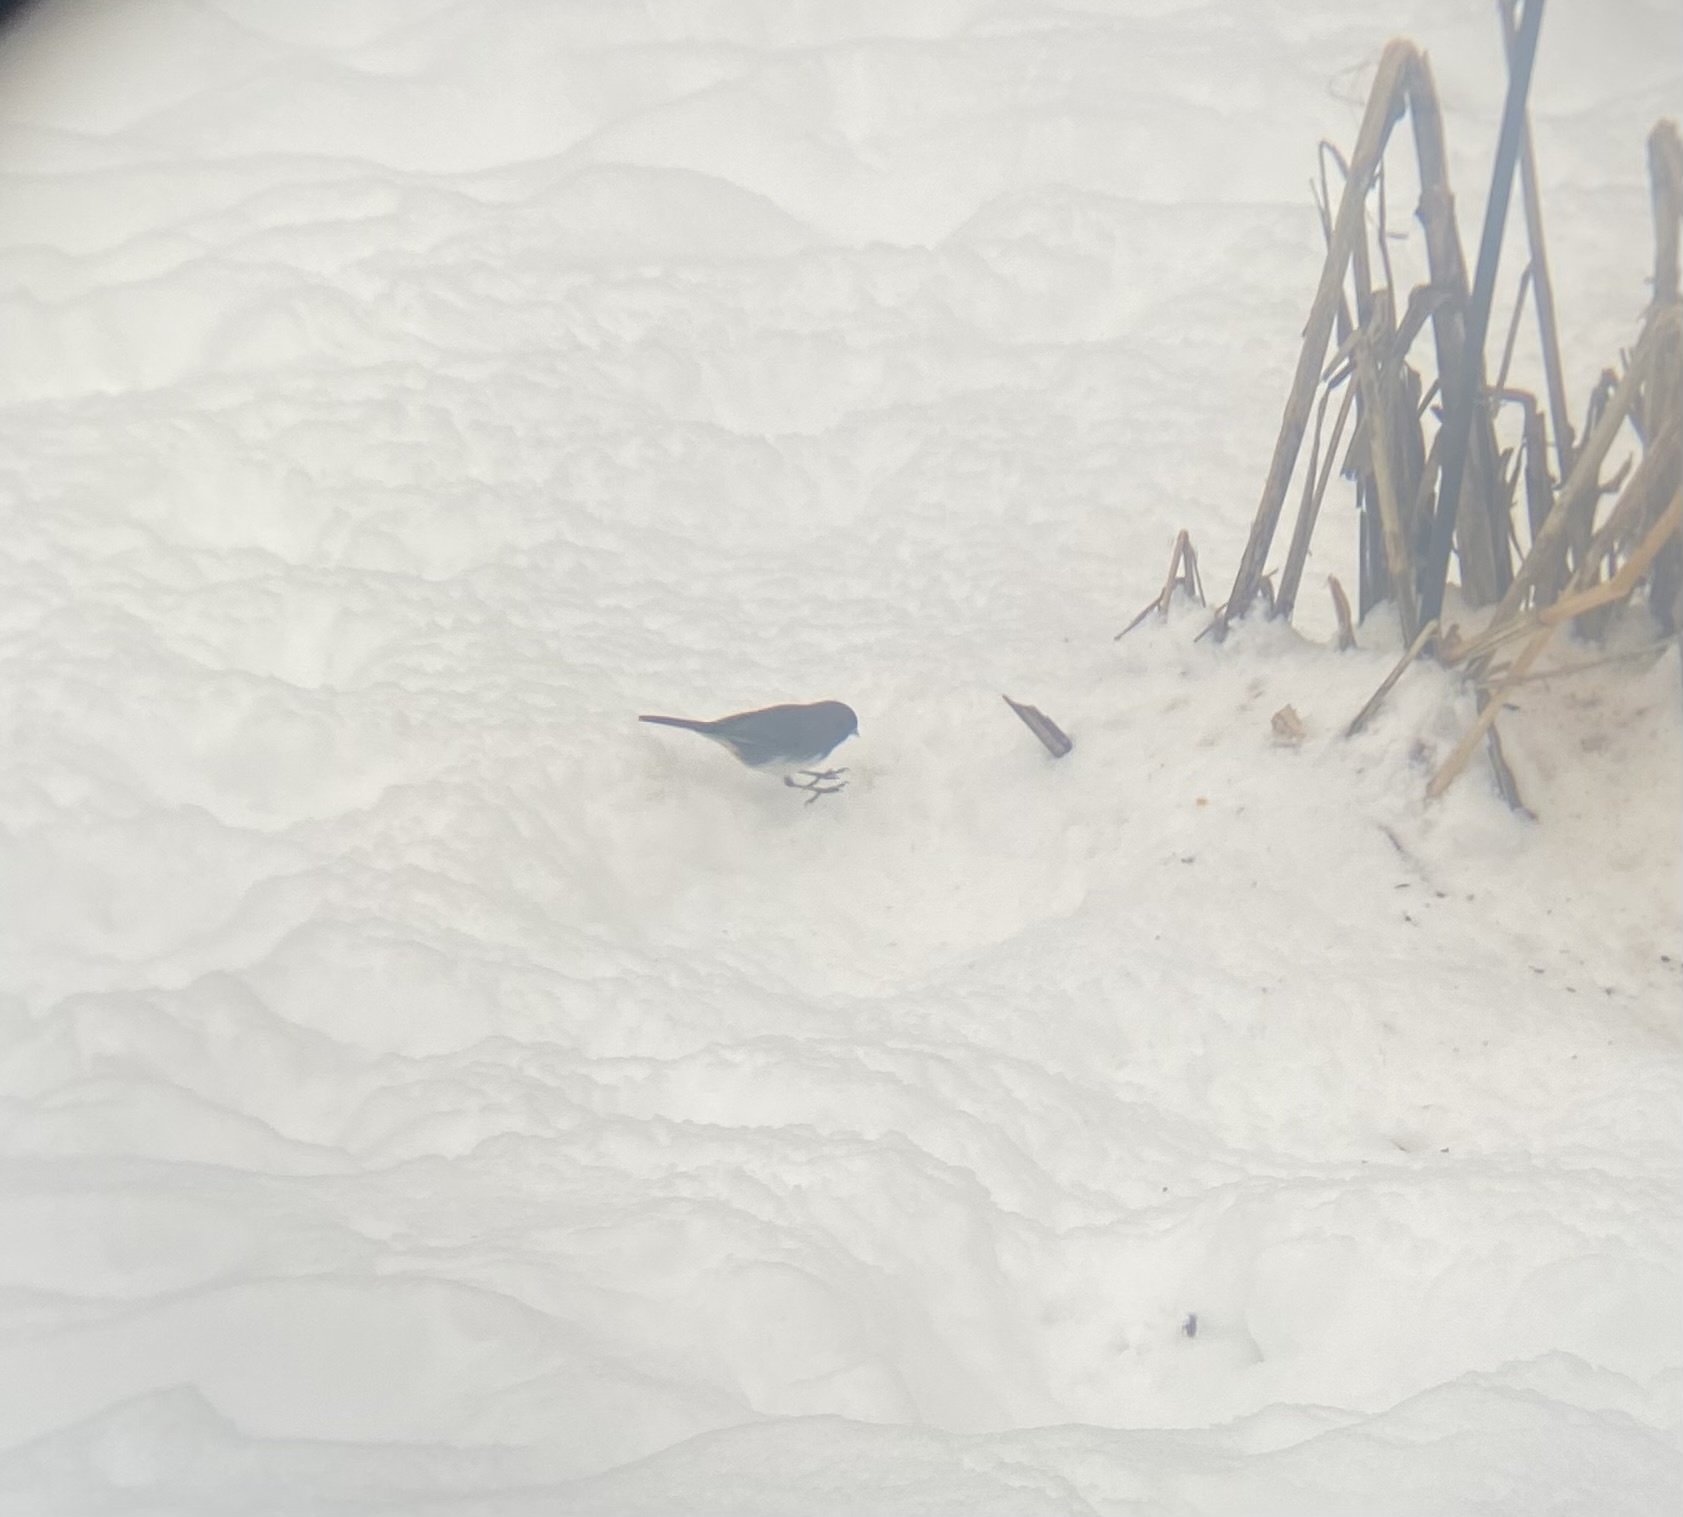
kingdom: Animalia
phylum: Chordata
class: Aves
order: Passeriformes
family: Passerellidae
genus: Junco
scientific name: Junco hyemalis
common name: Dark-eyed junco
